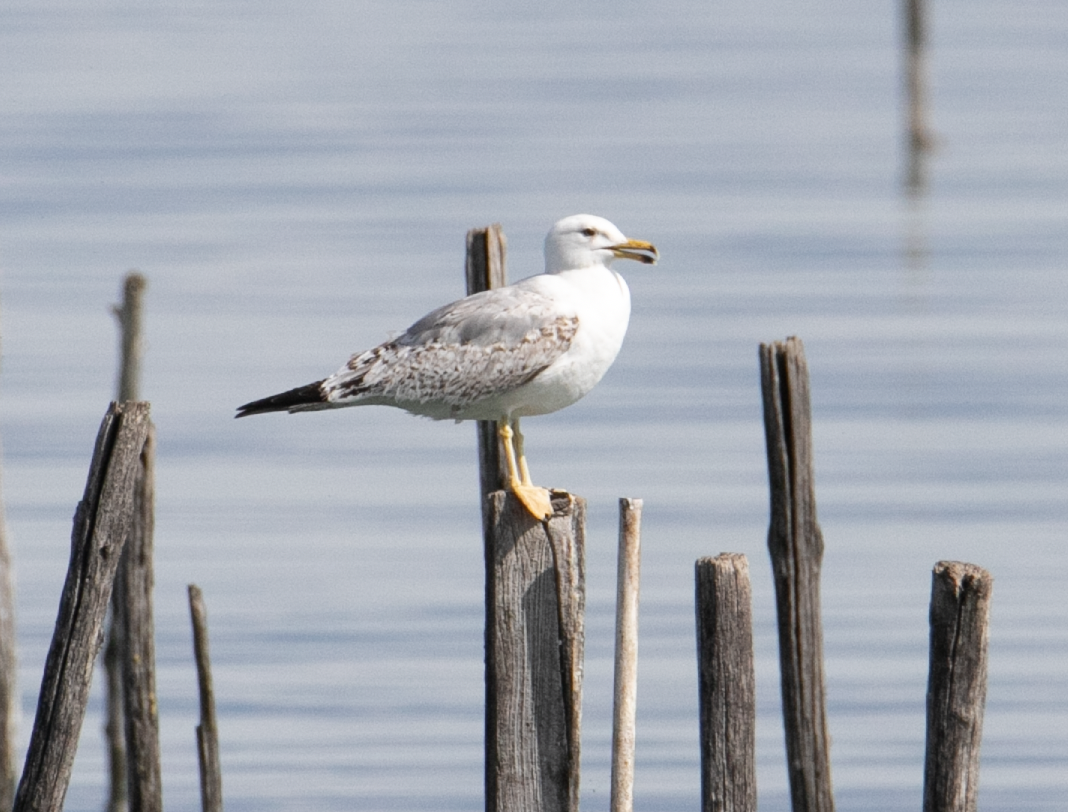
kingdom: Animalia
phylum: Chordata
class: Aves
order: Charadriiformes
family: Laridae
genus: Larus
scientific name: Larus michahellis
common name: Yellow-legged gull
